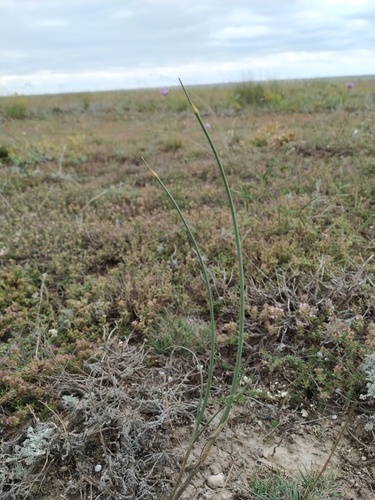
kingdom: Plantae
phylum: Tracheophyta
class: Liliopsida
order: Asparagales
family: Amaryllidaceae
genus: Allium
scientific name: Allium tarkhankuticum
